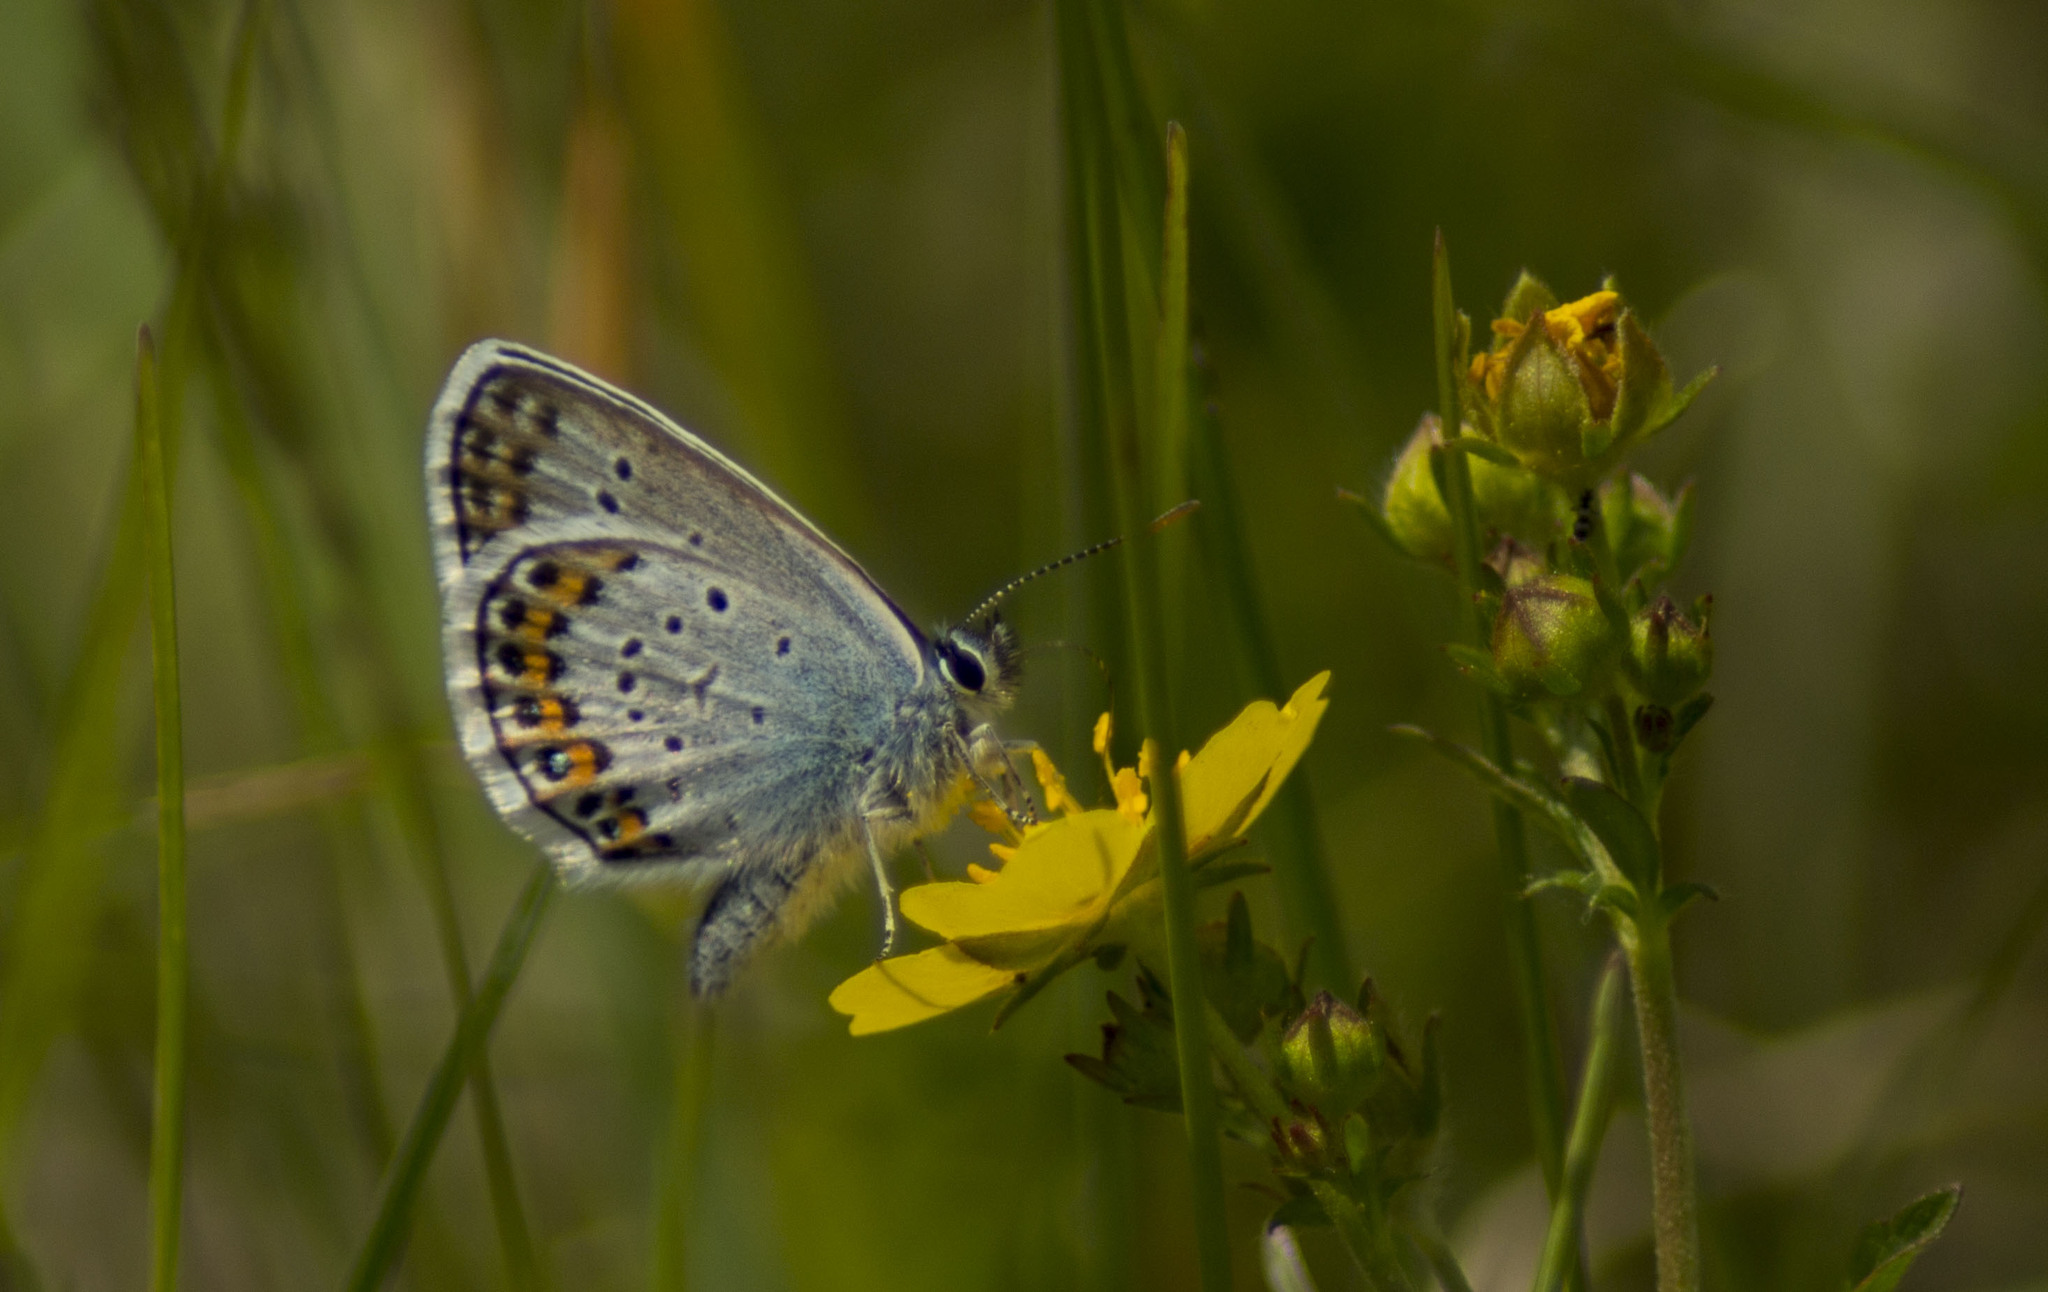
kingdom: Animalia
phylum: Arthropoda
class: Insecta
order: Lepidoptera
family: Lycaenidae
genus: Plebejus
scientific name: Plebejus argus
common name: Silver-studded blue
